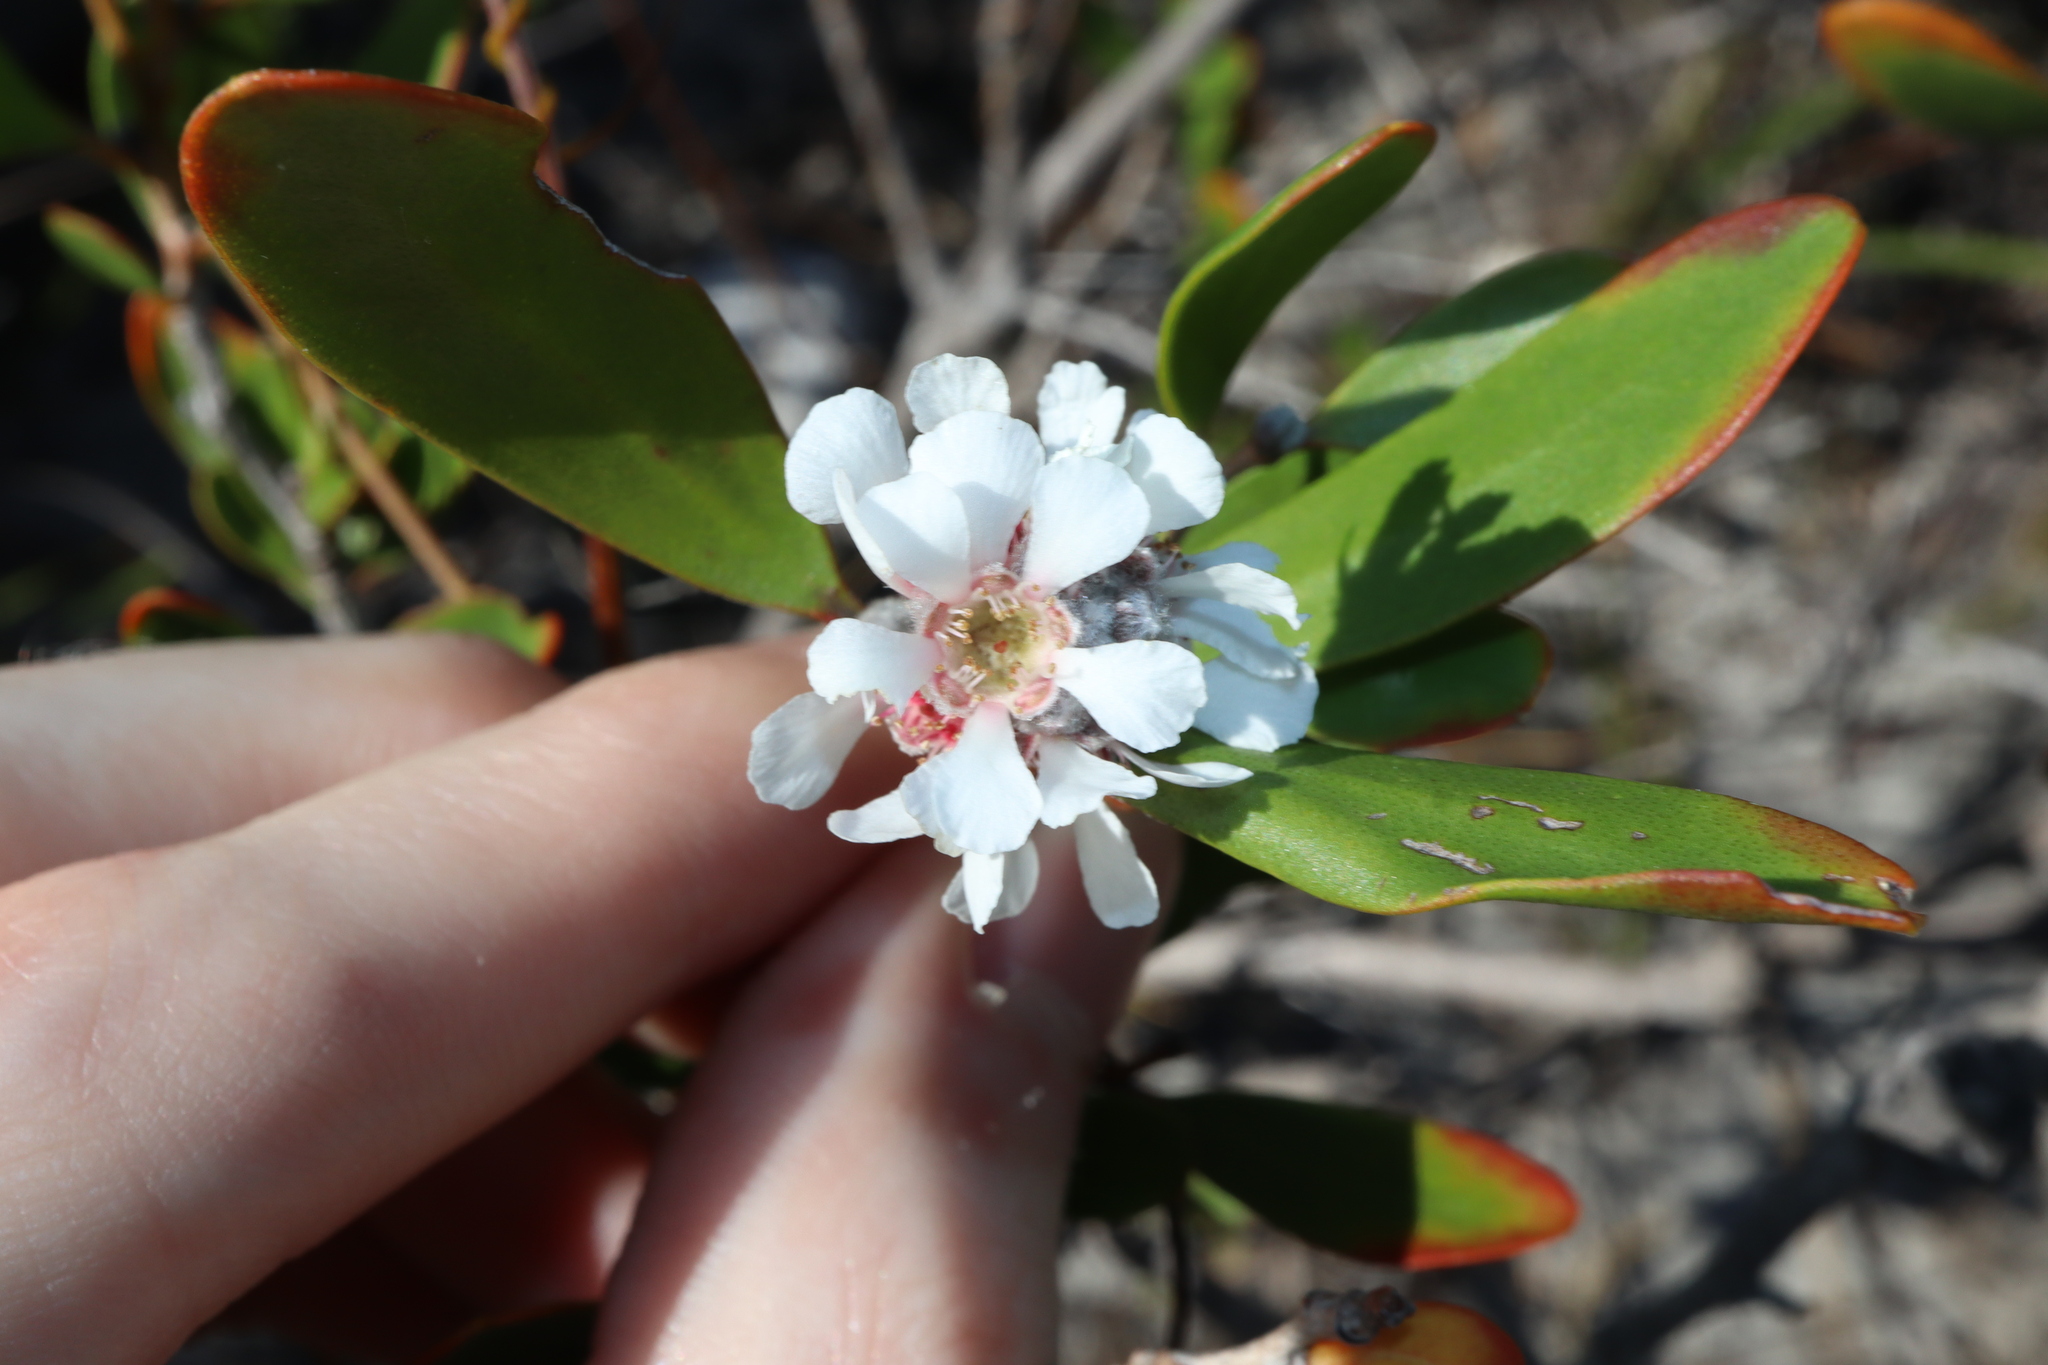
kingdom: Plantae
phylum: Tracheophyta
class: Magnoliopsida
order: Myrtales
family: Myrtaceae
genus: Agonis
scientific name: Agonis baxteri
